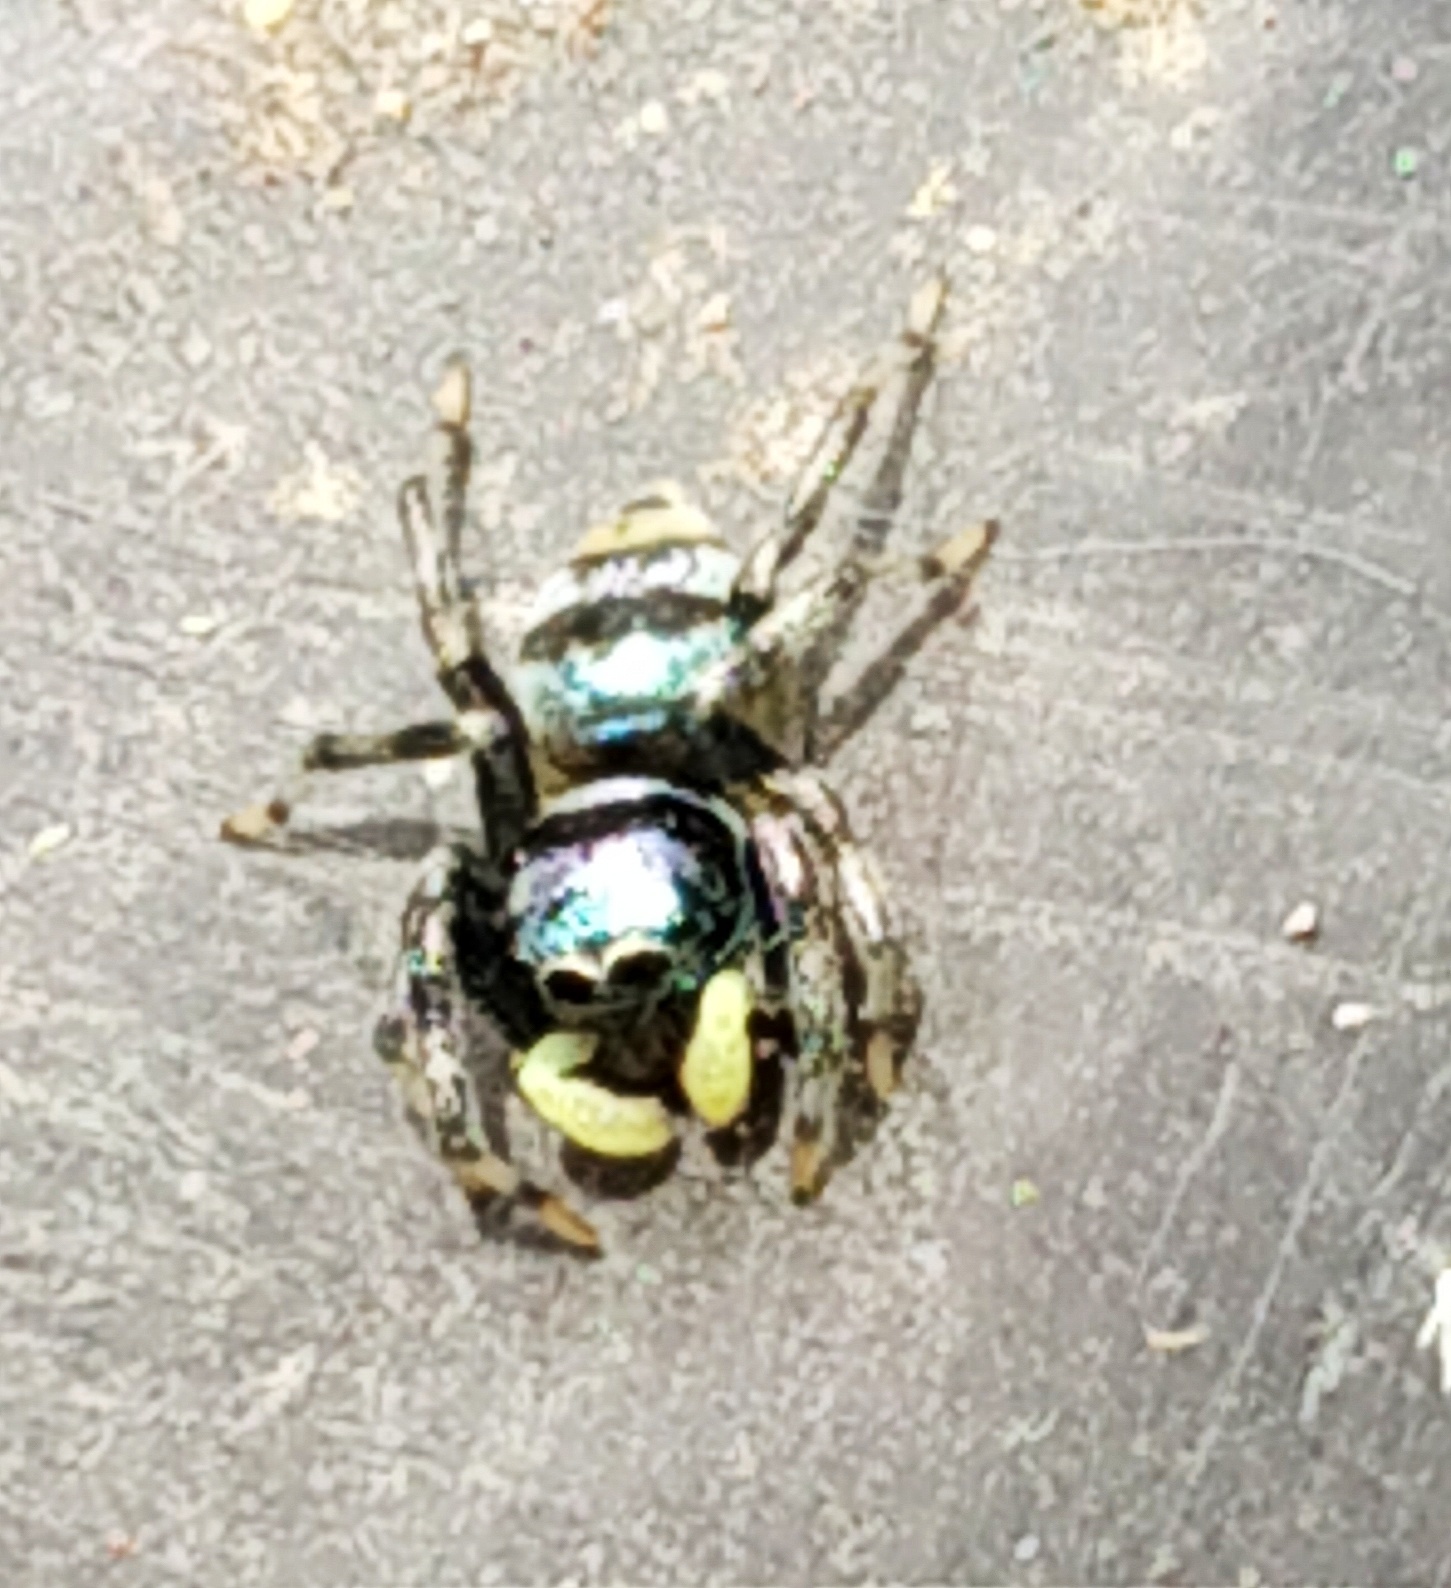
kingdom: Animalia
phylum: Arthropoda
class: Arachnida
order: Araneae
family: Salticidae
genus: Phintella
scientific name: Phintella vittata
